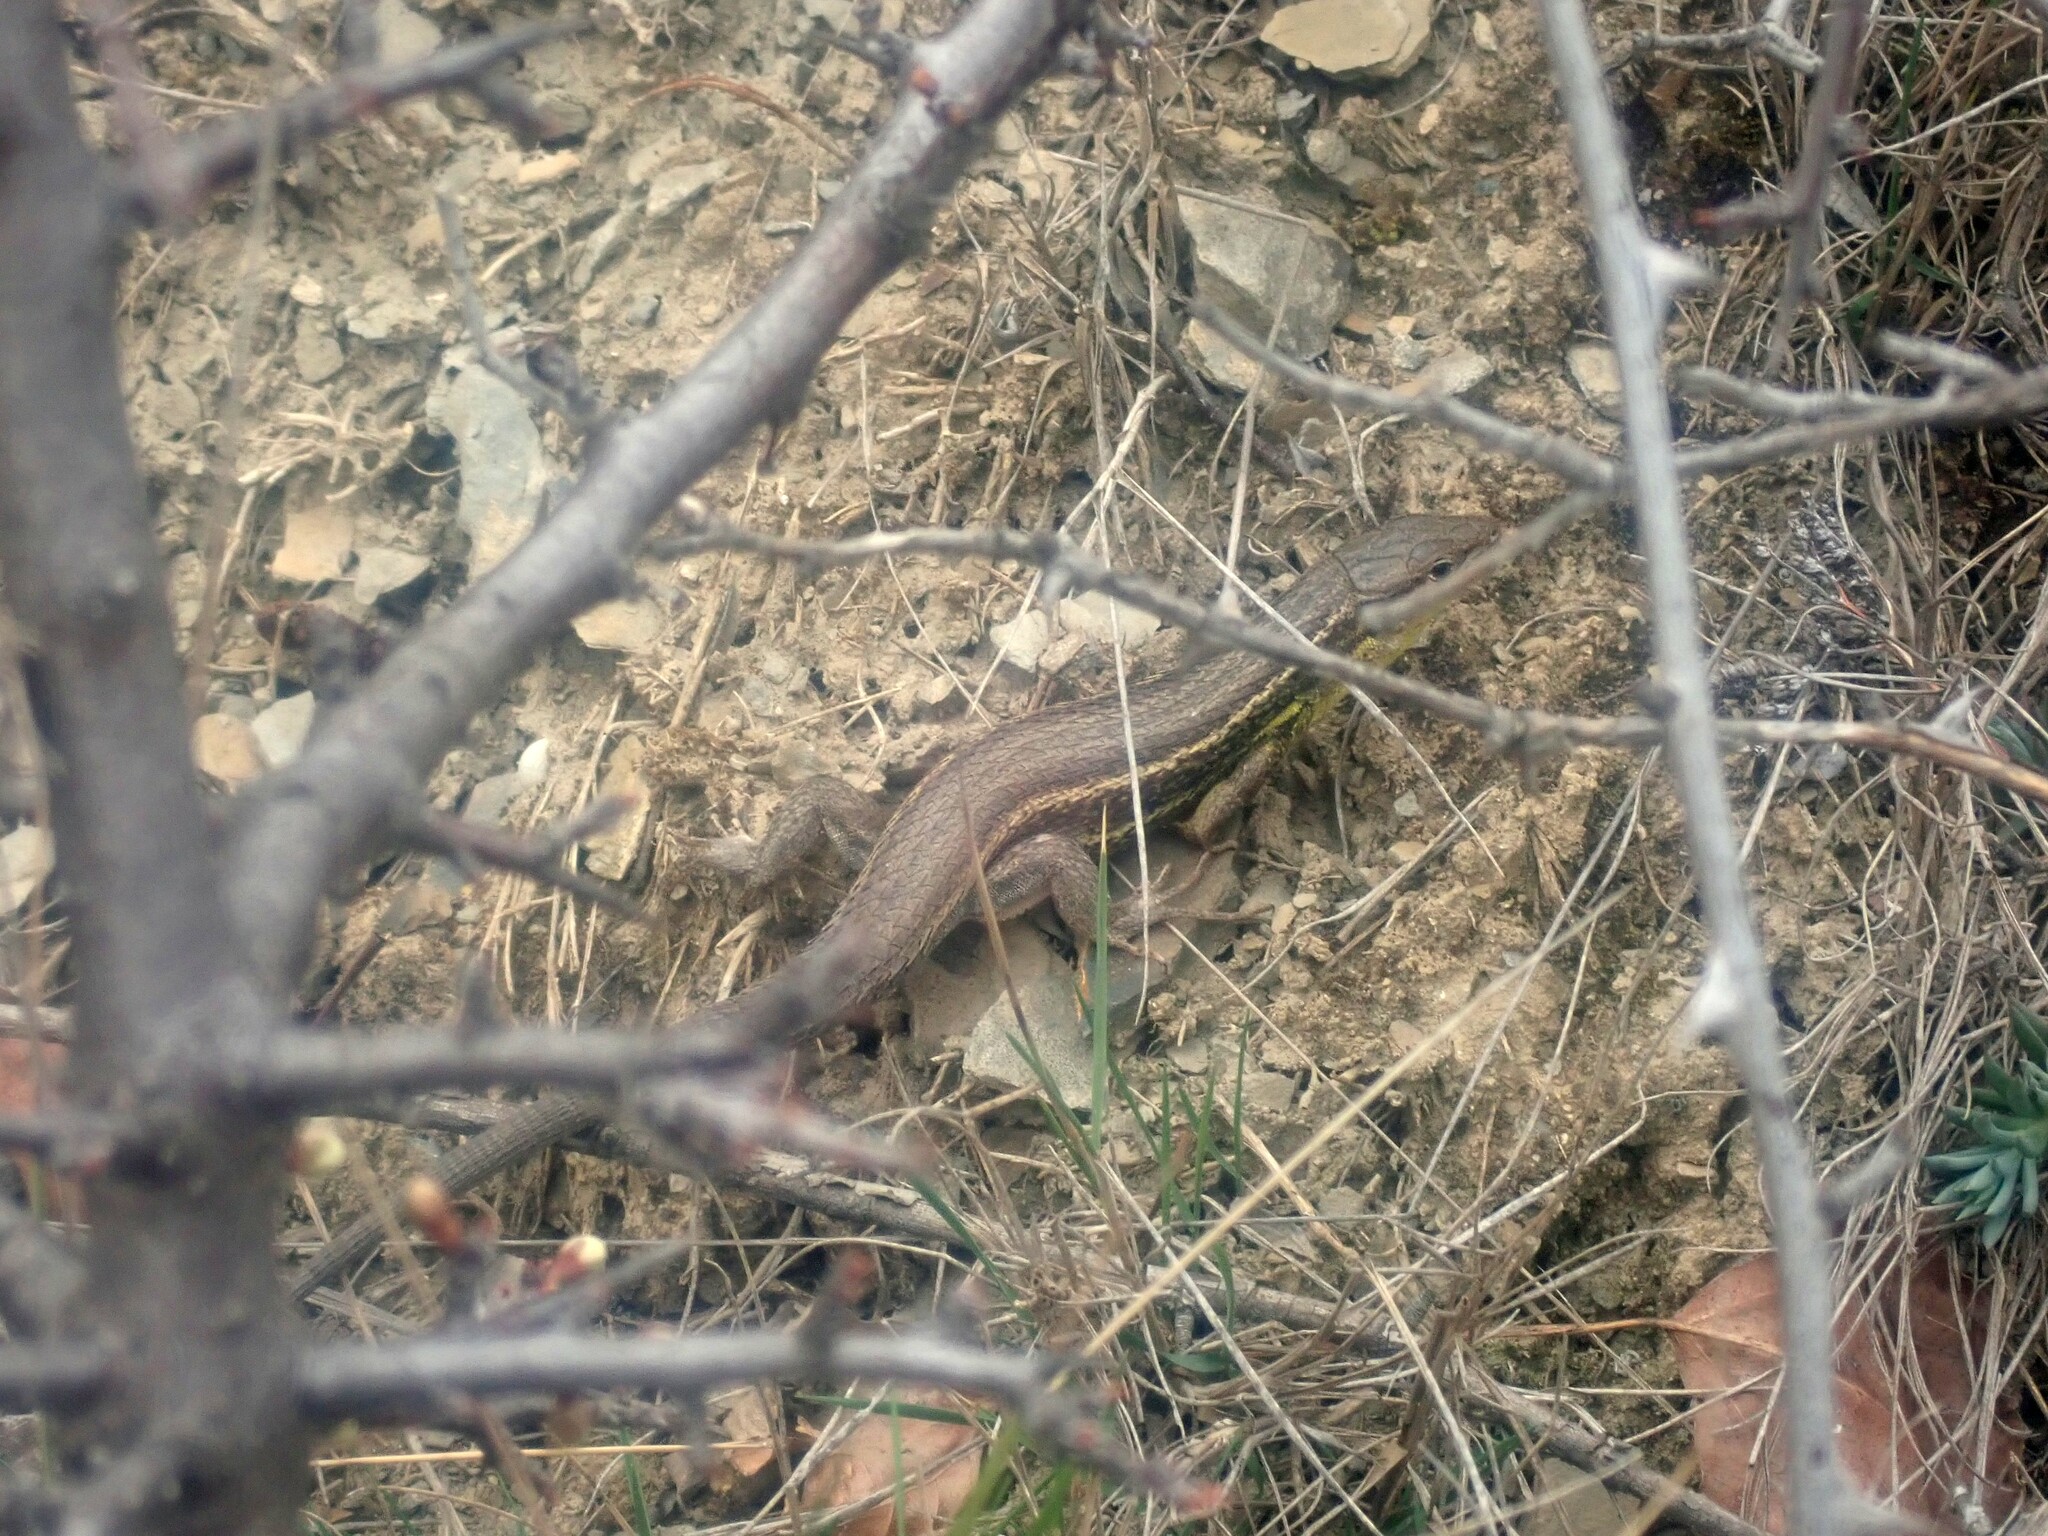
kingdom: Animalia
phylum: Chordata
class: Squamata
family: Lacertidae
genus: Psammodromus
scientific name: Psammodromus algirus
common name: Algerian psammodromus
